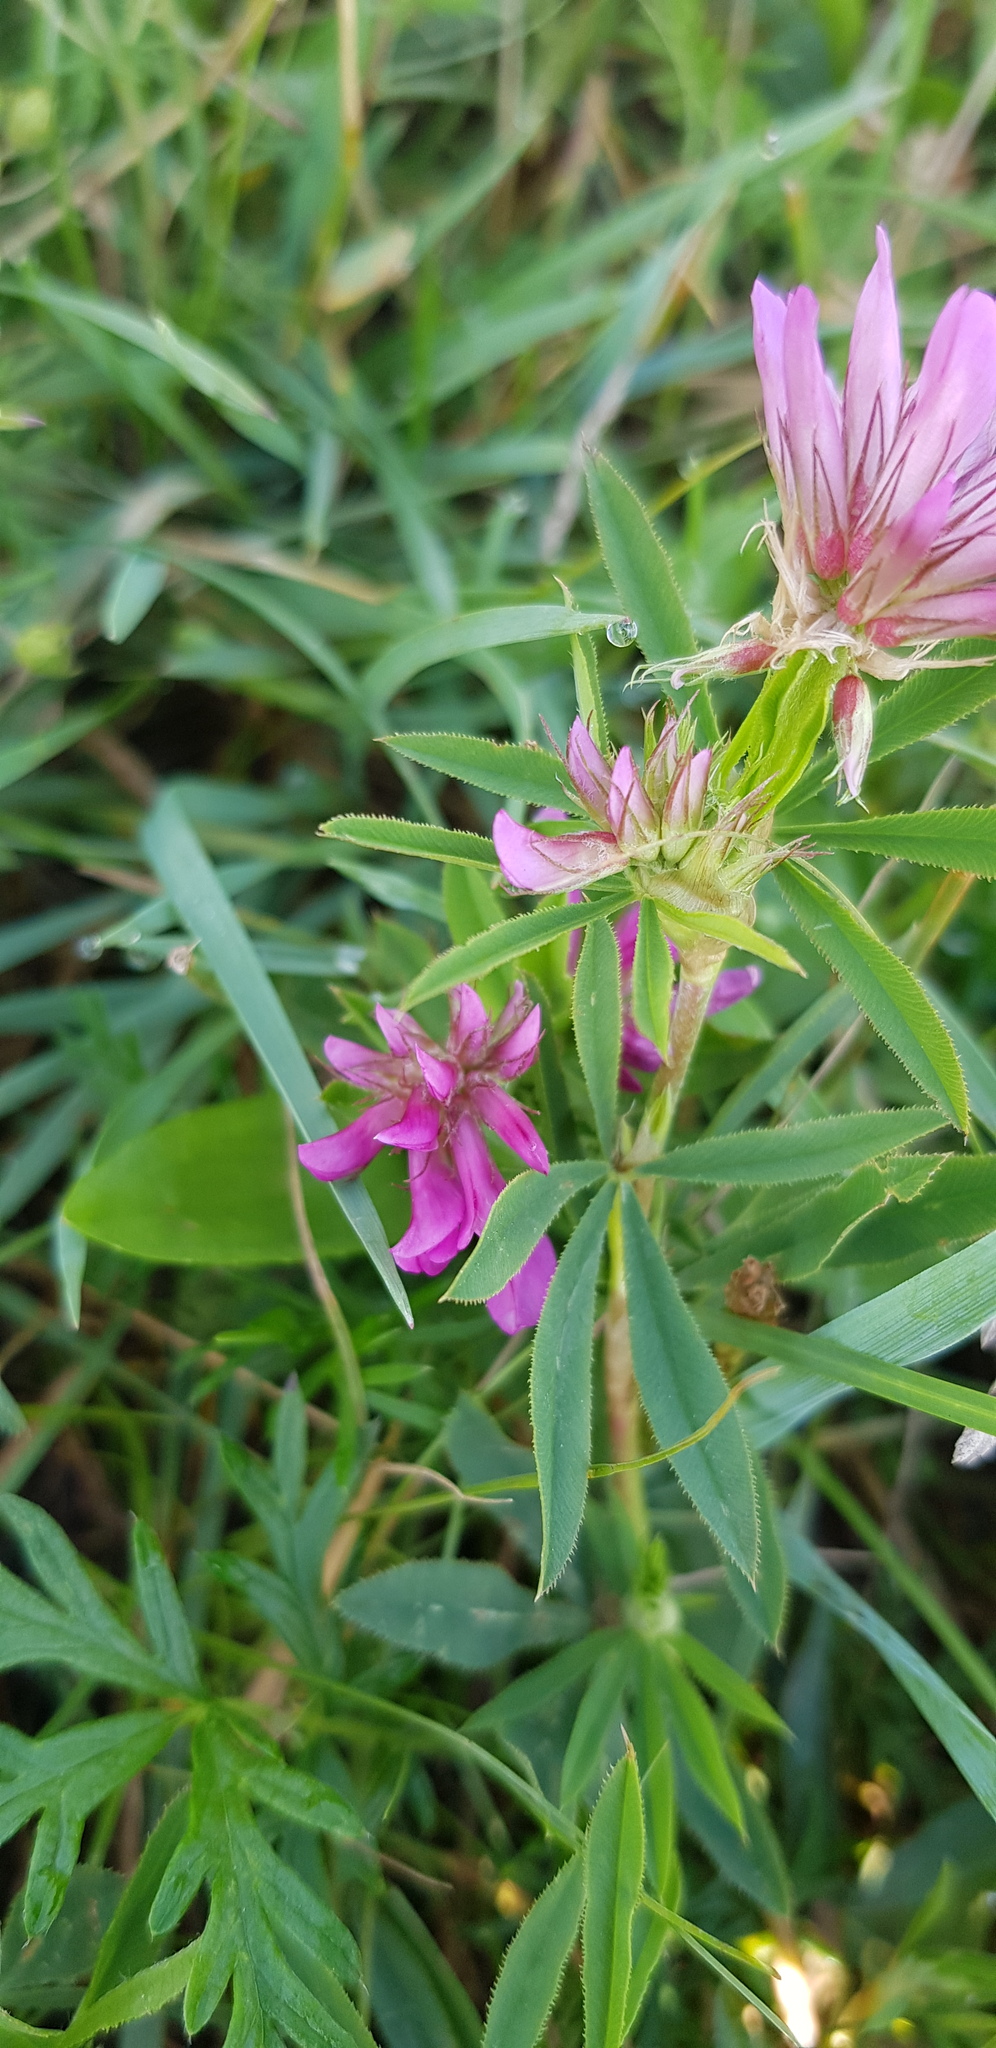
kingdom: Plantae
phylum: Tracheophyta
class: Magnoliopsida
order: Fabales
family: Fabaceae
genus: Trifolium
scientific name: Trifolium lupinaster
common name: Lupine clover
